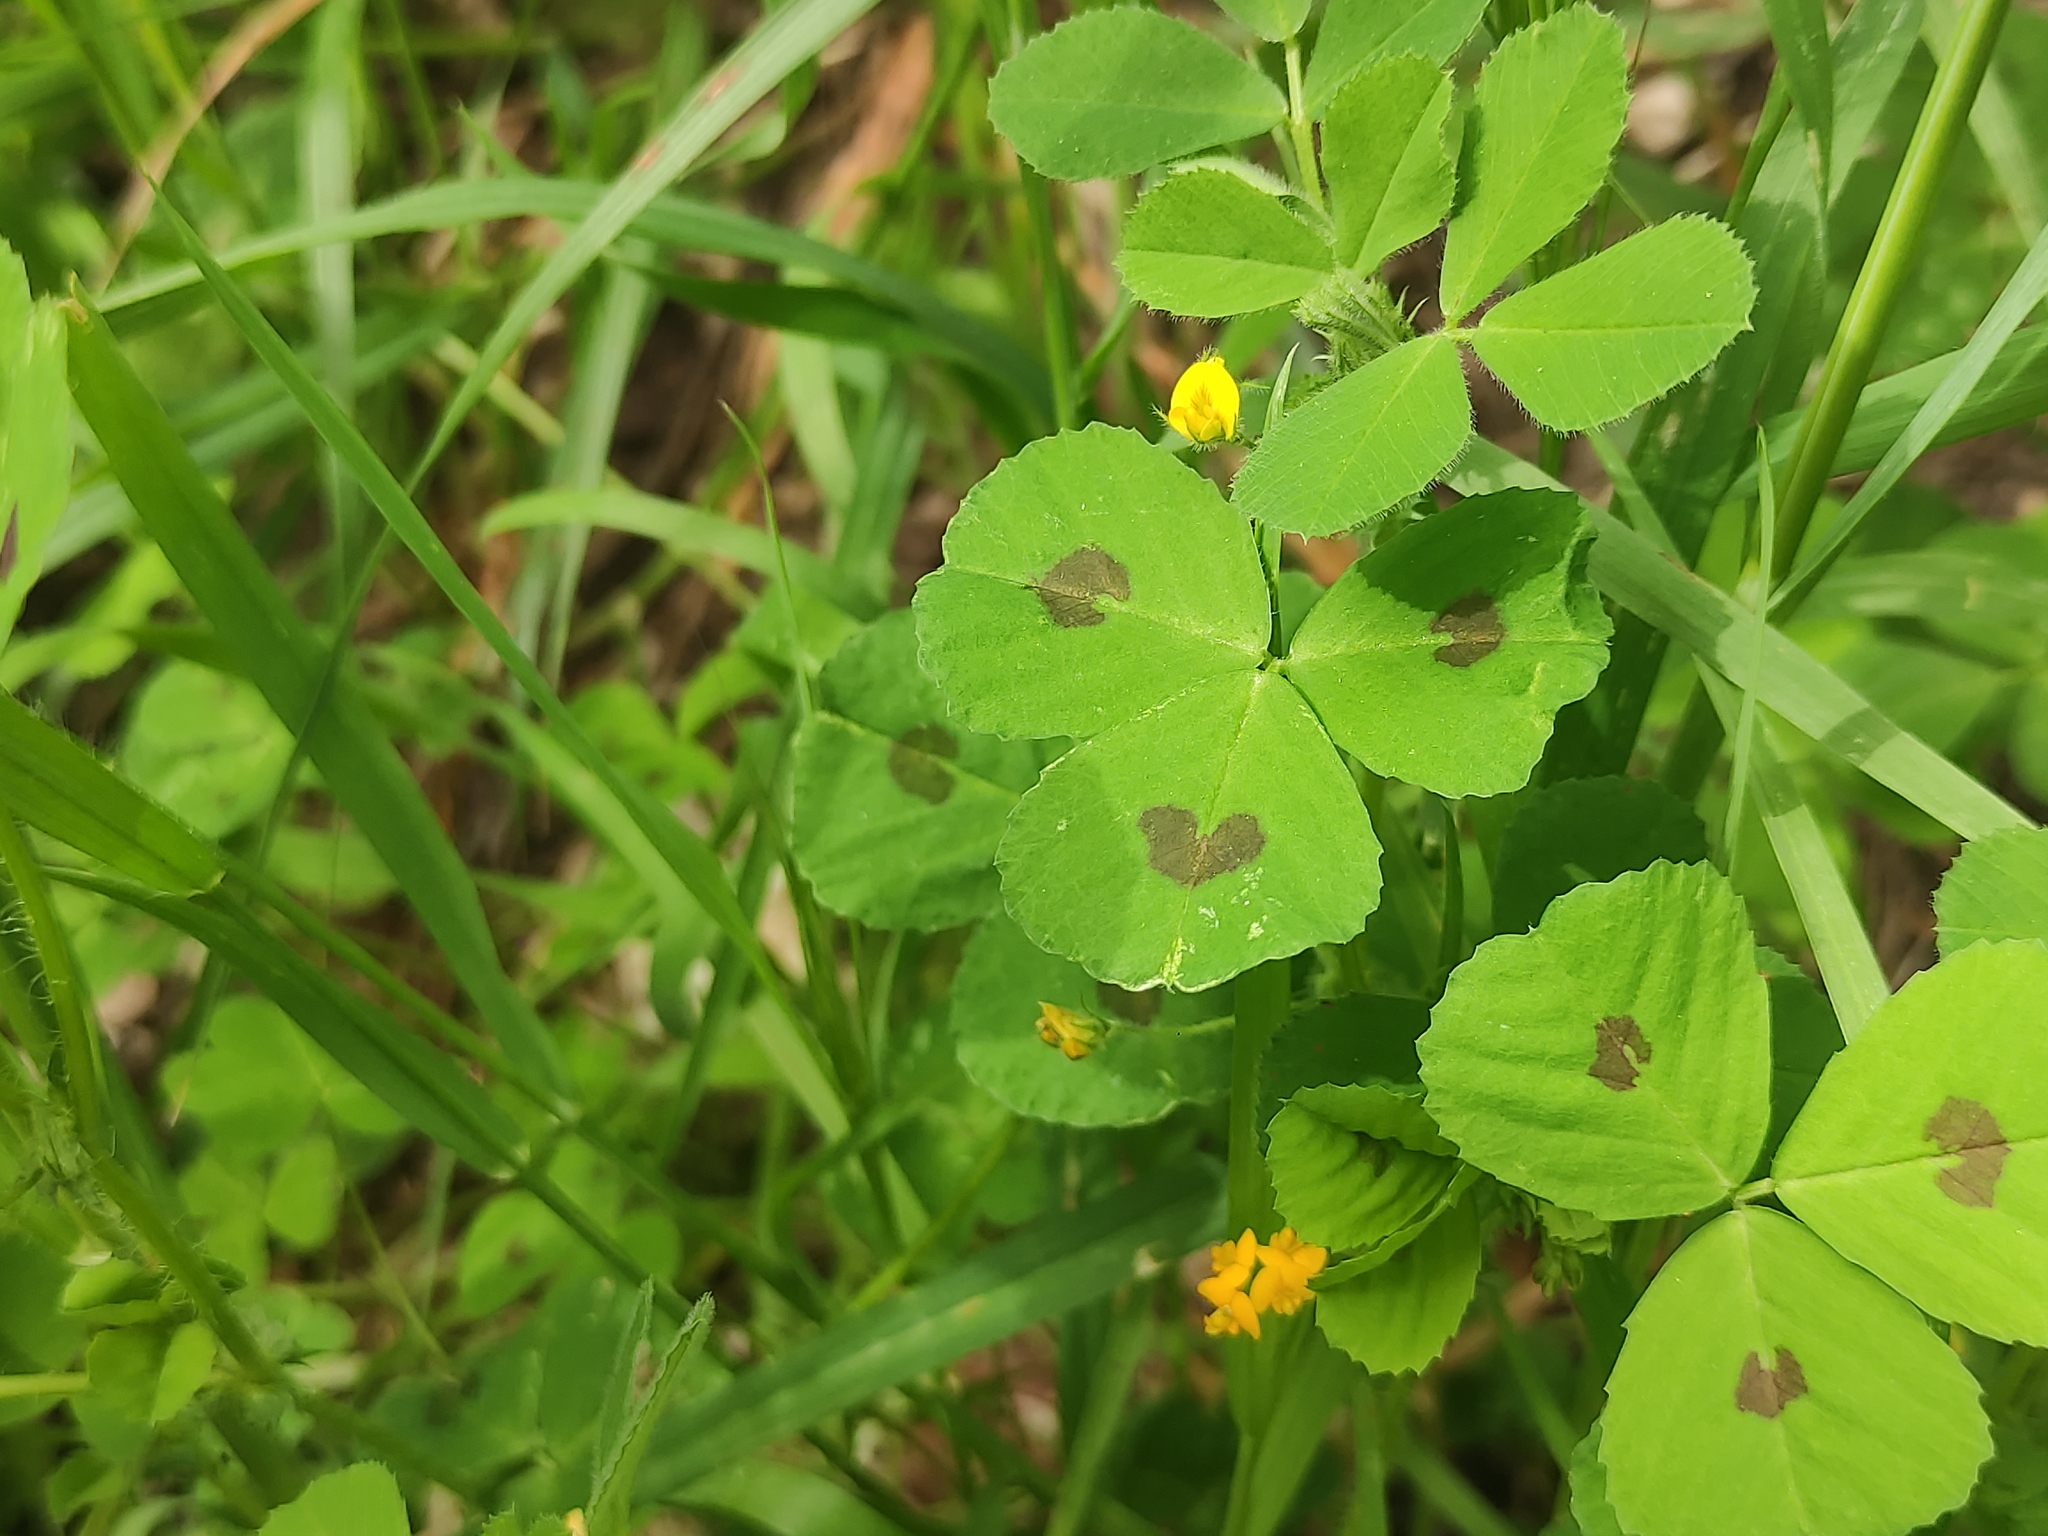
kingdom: Plantae
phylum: Tracheophyta
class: Magnoliopsida
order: Fabales
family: Fabaceae
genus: Medicago
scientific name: Medicago arabica
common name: Spotted medick
